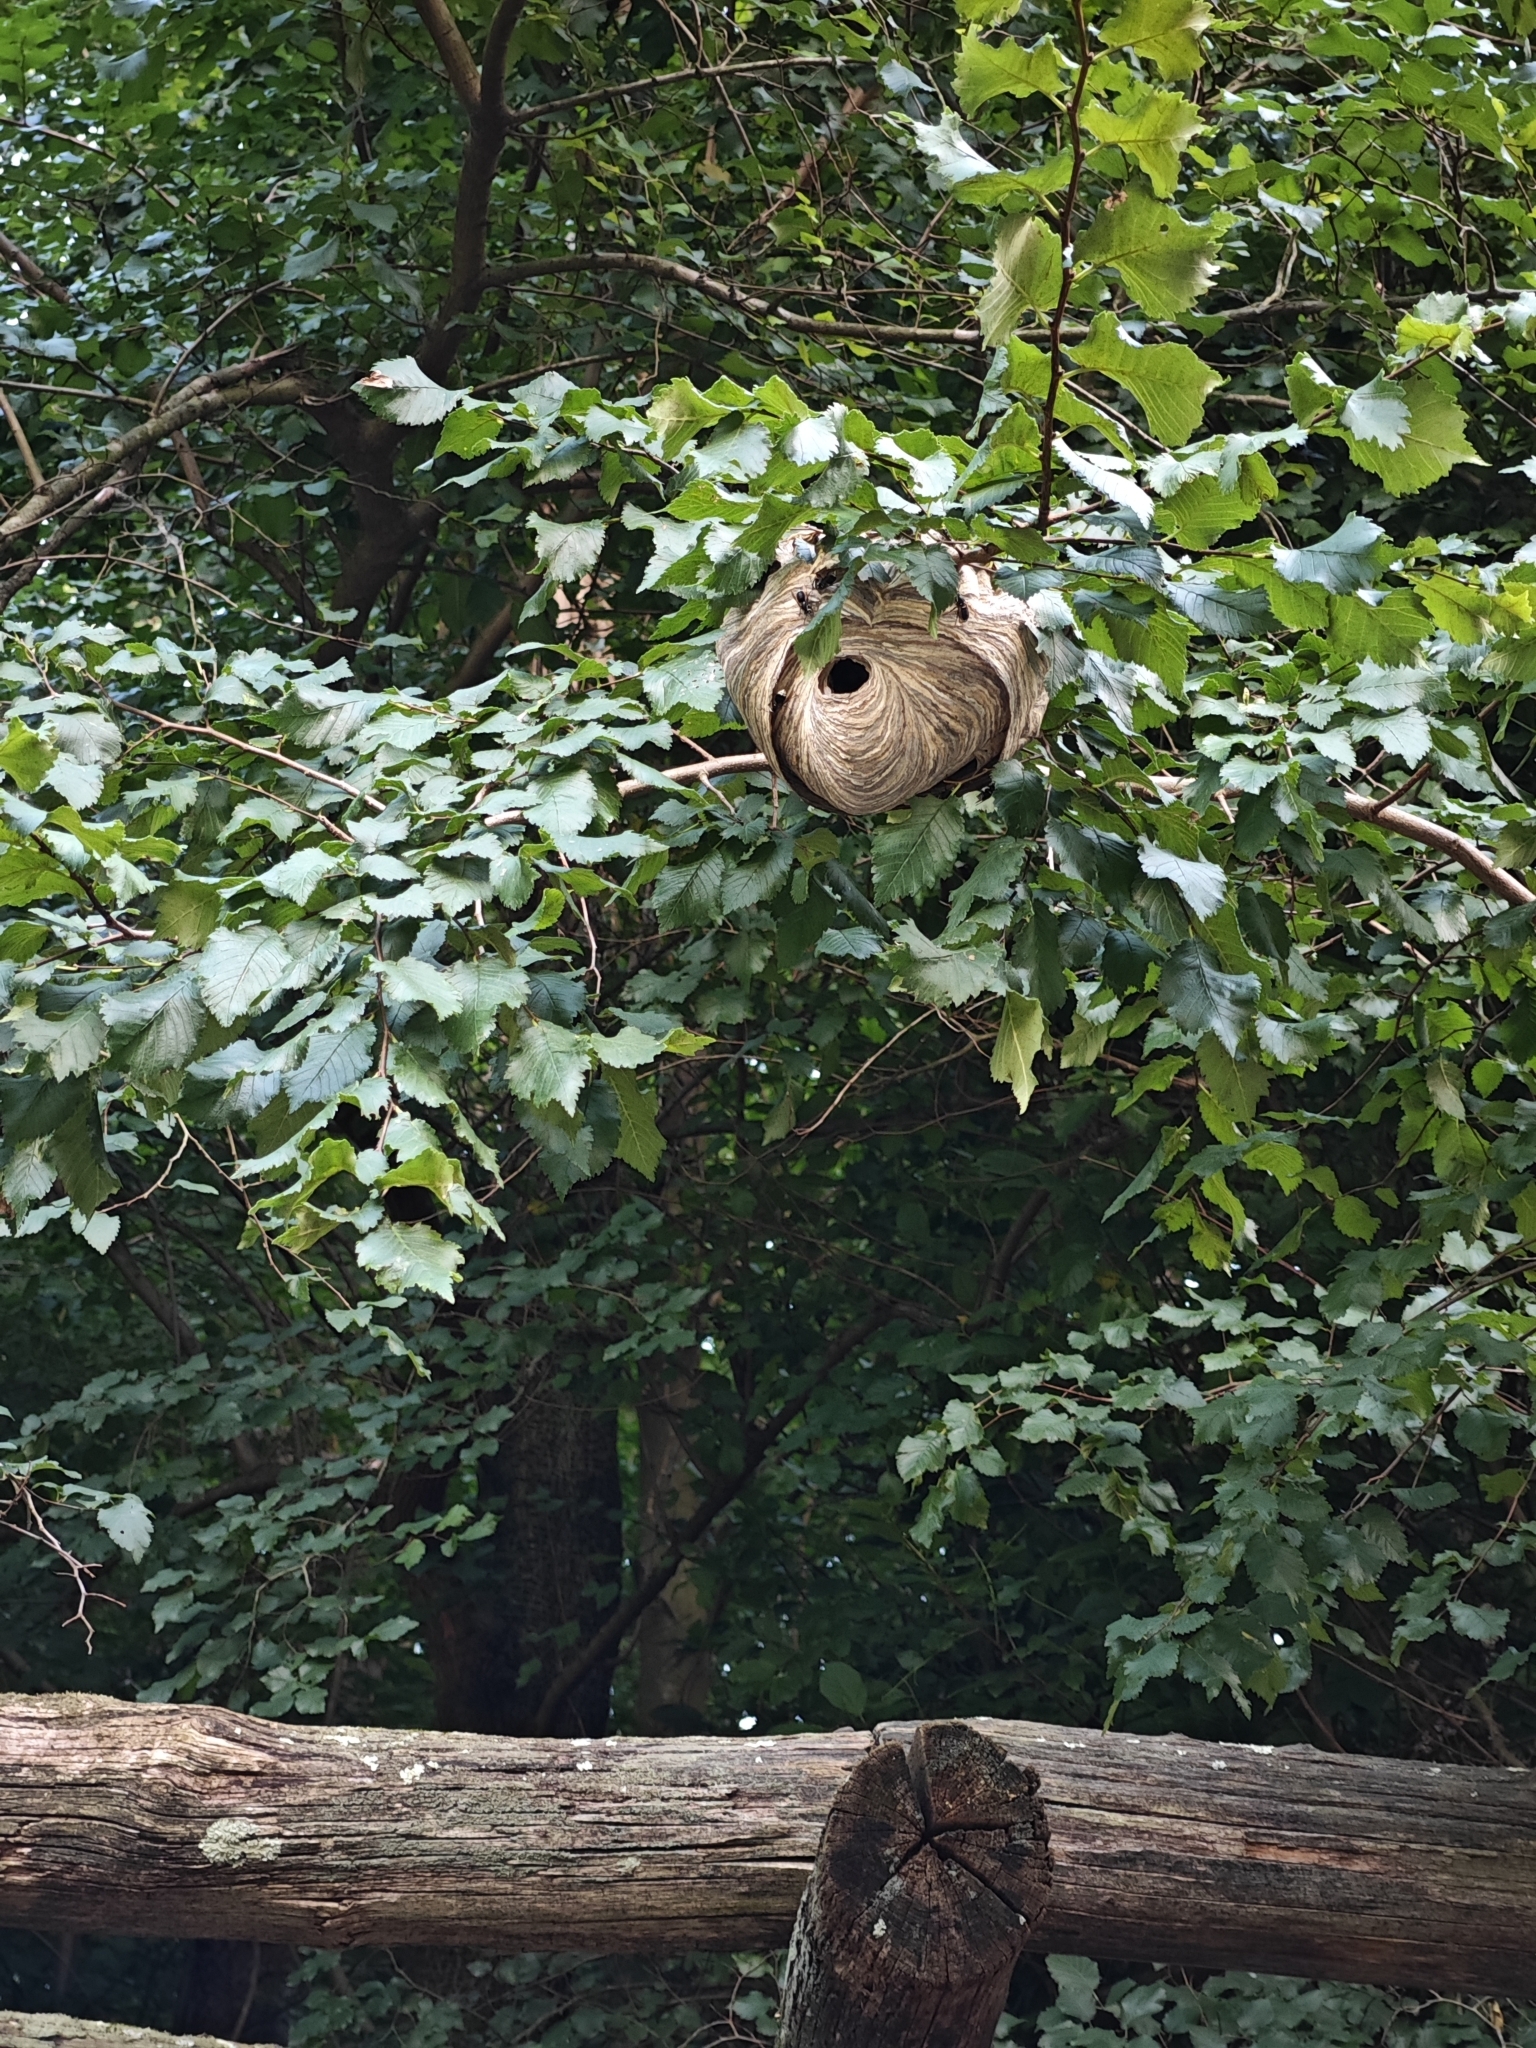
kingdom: Animalia
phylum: Arthropoda
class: Insecta
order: Hymenoptera
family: Vespidae
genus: Dolichovespula
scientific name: Dolichovespula maculata
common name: Bald-faced hornet
